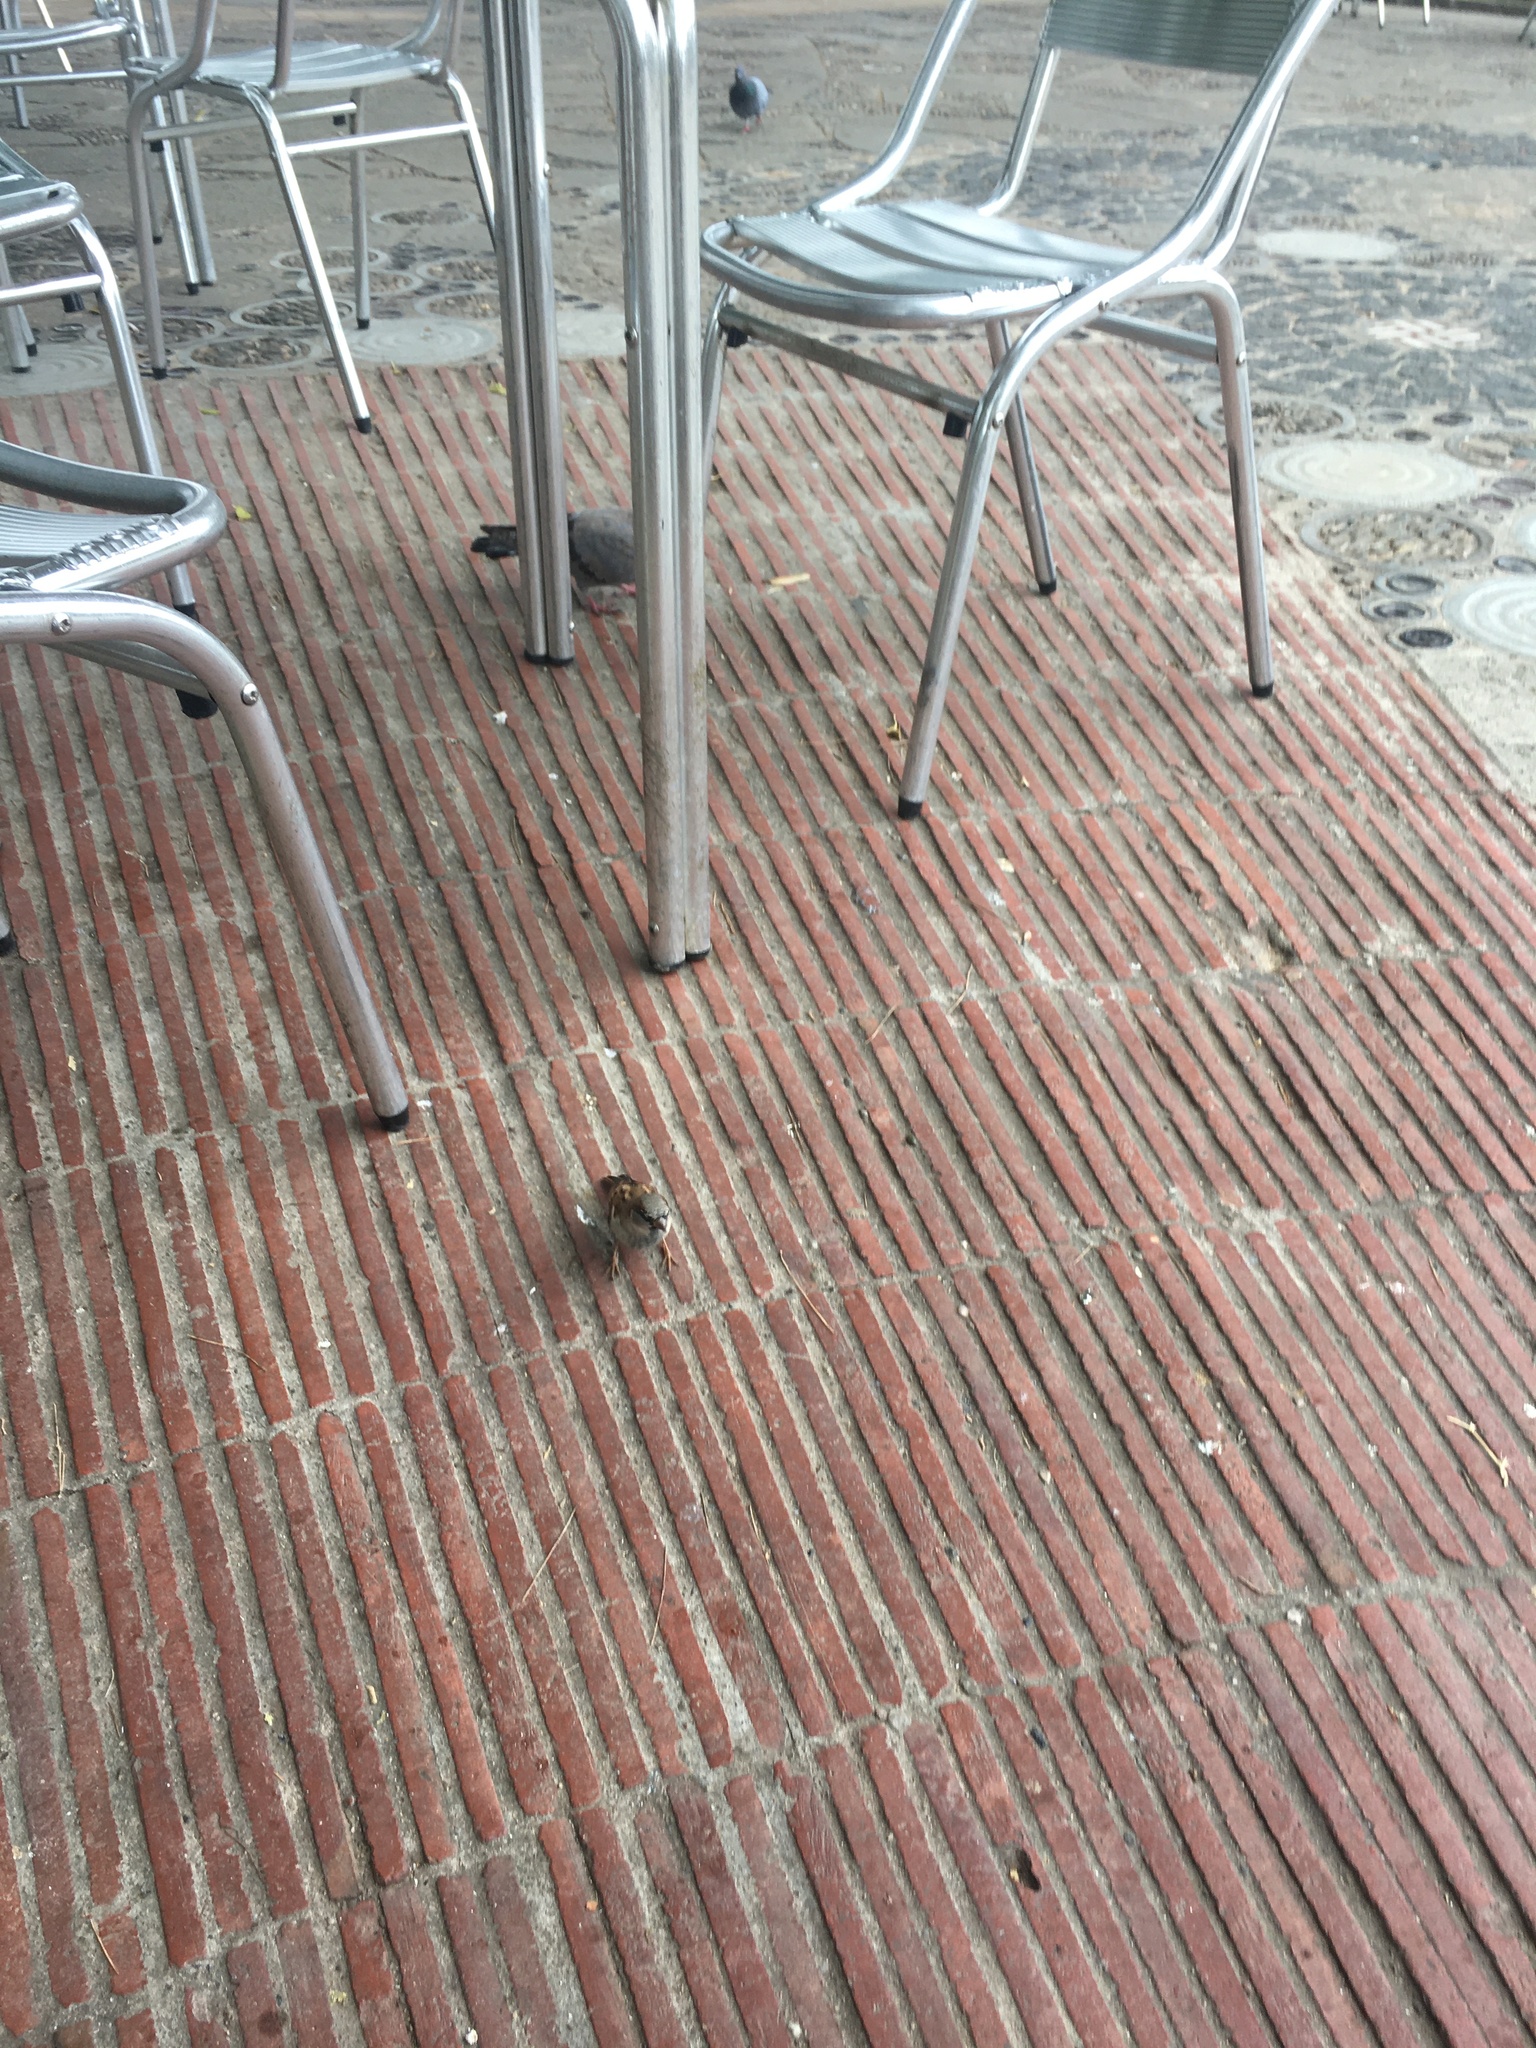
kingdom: Animalia
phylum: Chordata
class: Aves
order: Passeriformes
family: Passeridae
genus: Passer
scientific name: Passer domesticus
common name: House sparrow
